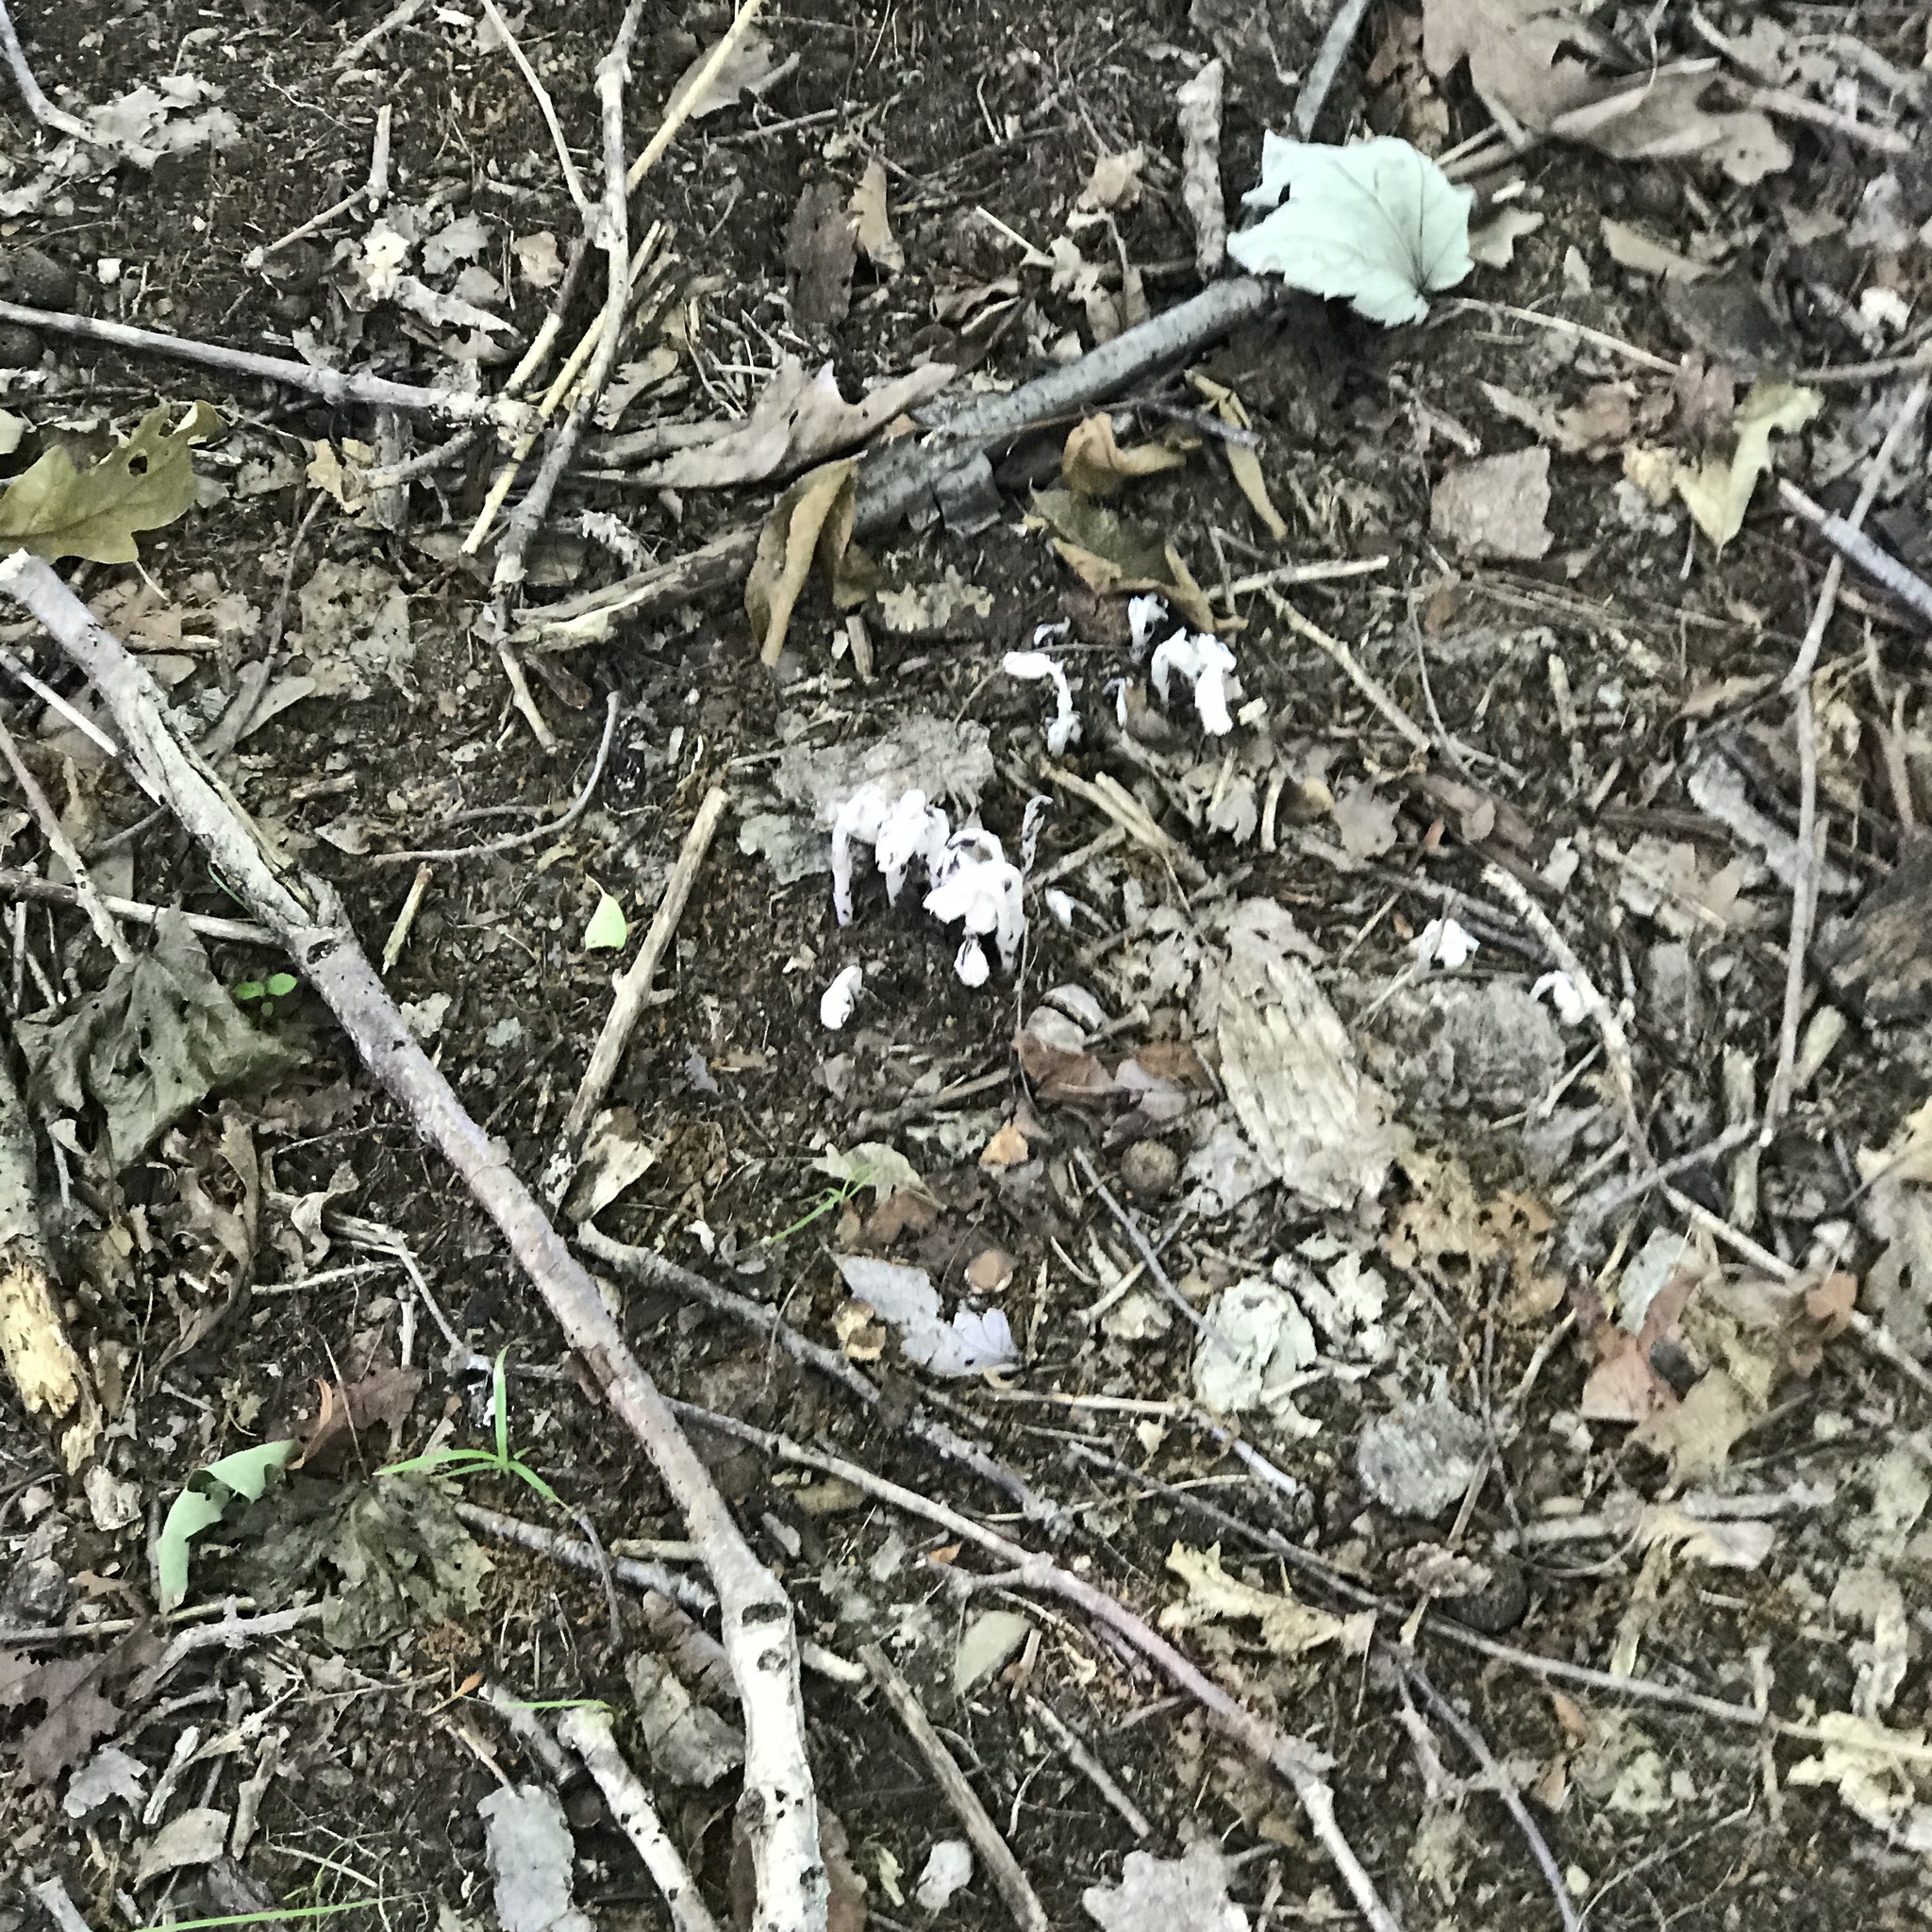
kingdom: Plantae
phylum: Tracheophyta
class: Magnoliopsida
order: Ericales
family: Ericaceae
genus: Monotropa
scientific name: Monotropa uniflora
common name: Convulsion root
